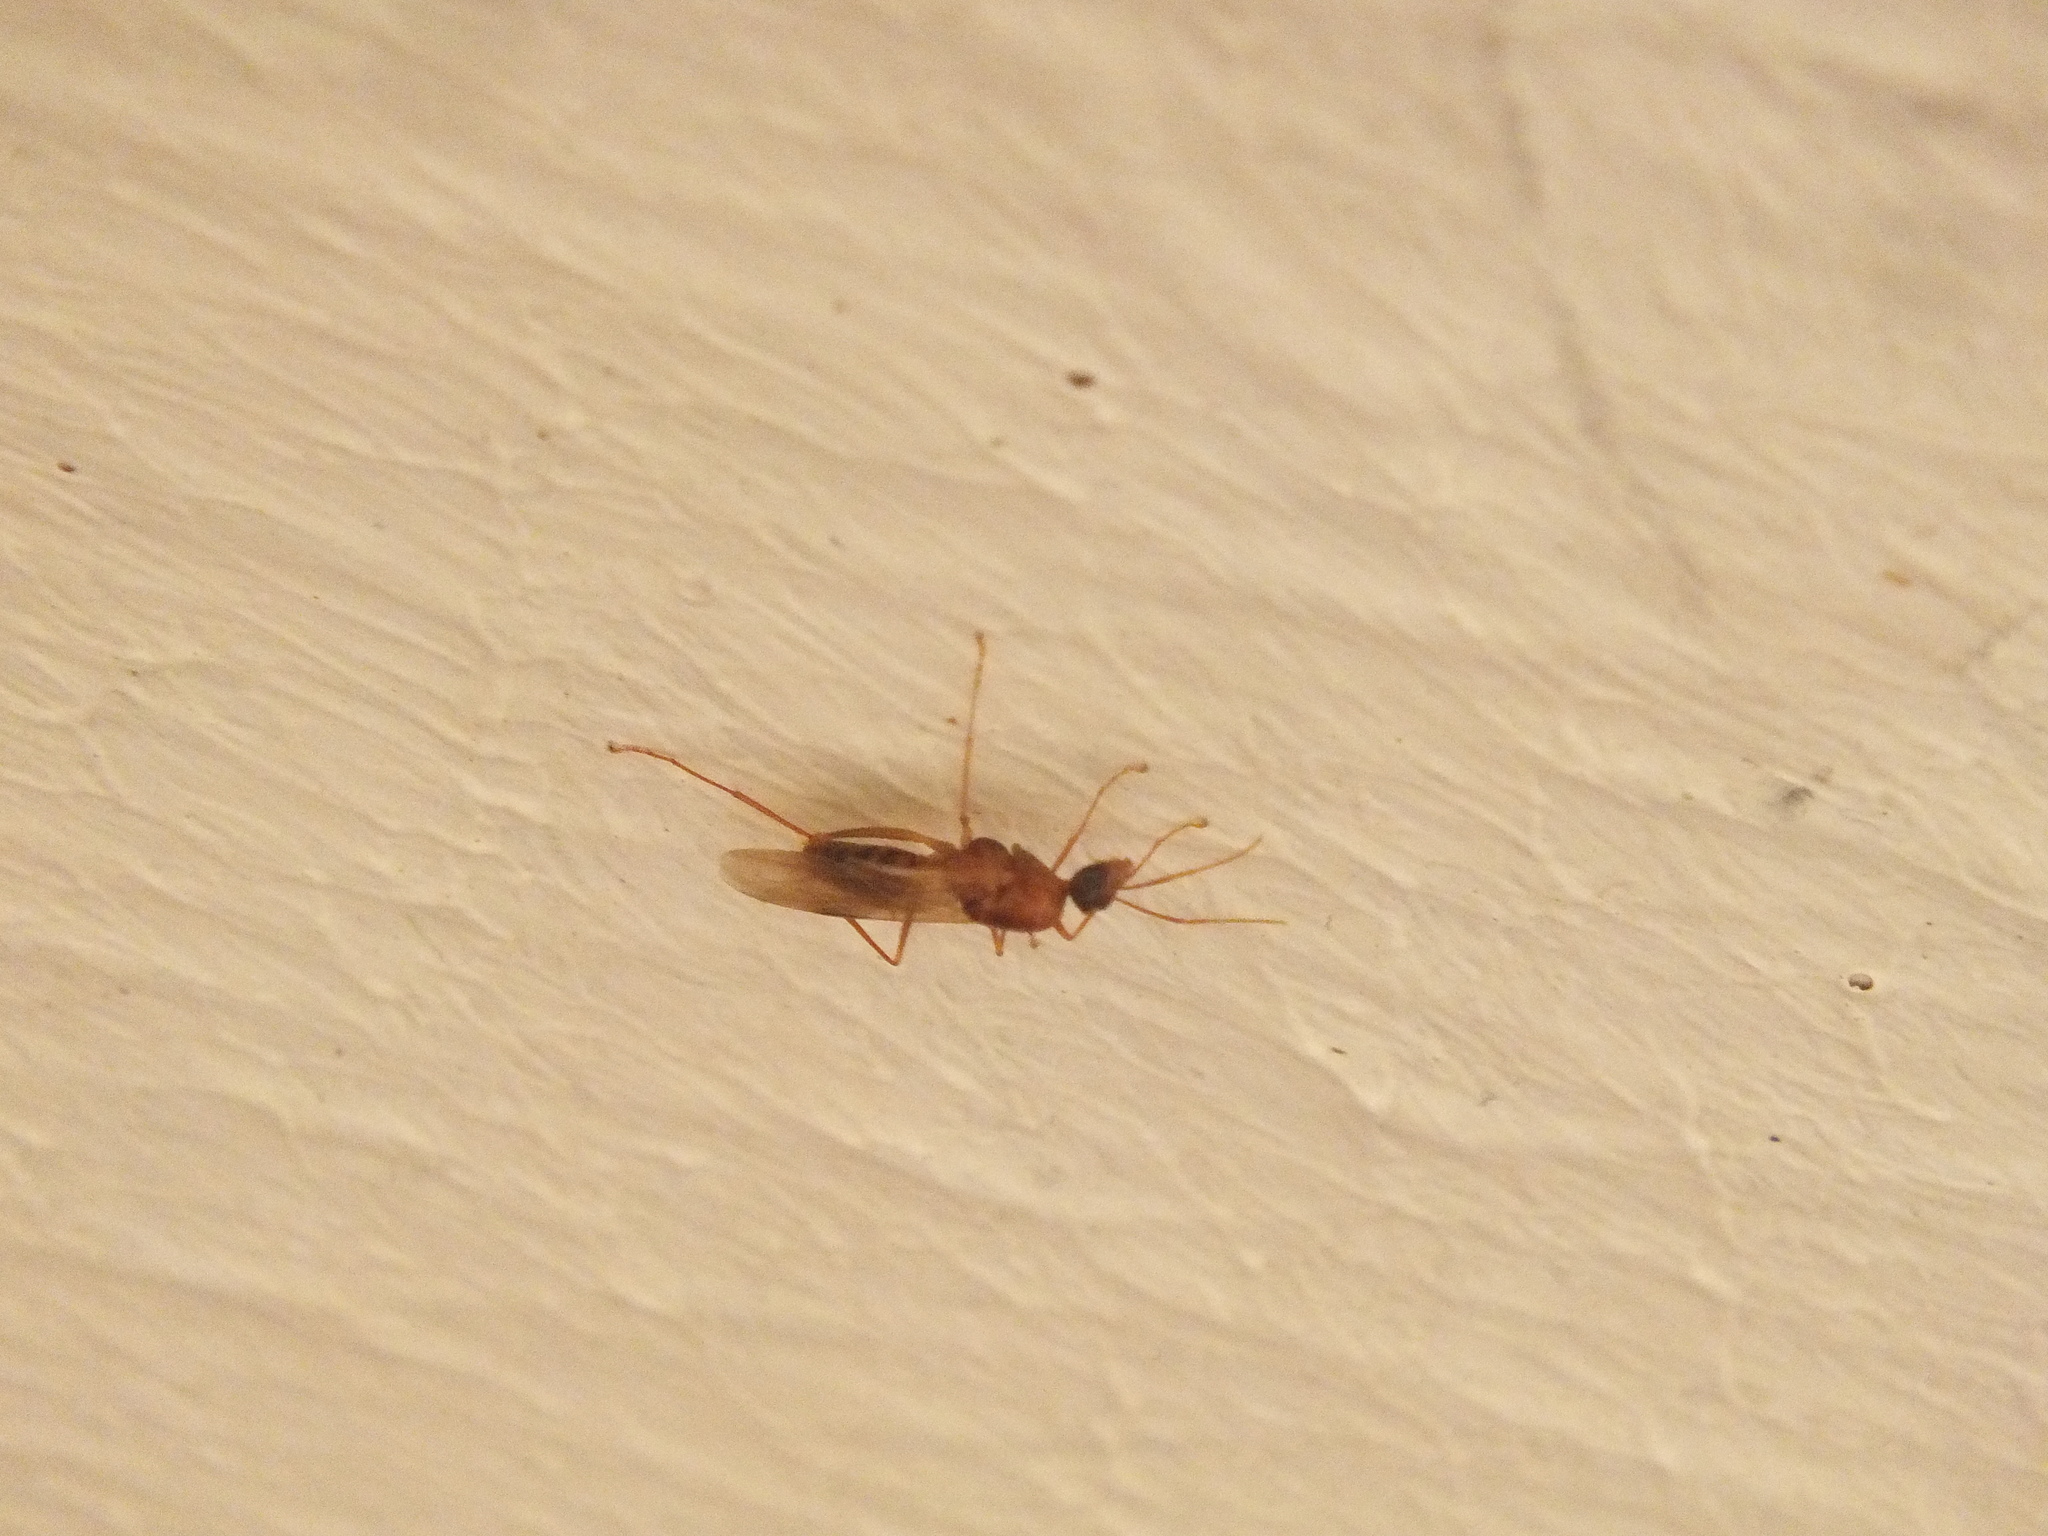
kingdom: Animalia
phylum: Arthropoda
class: Insecta
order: Hymenoptera
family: Formicidae
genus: Camponotus
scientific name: Camponotus variegatus
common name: Hawaiian carpenter ant
